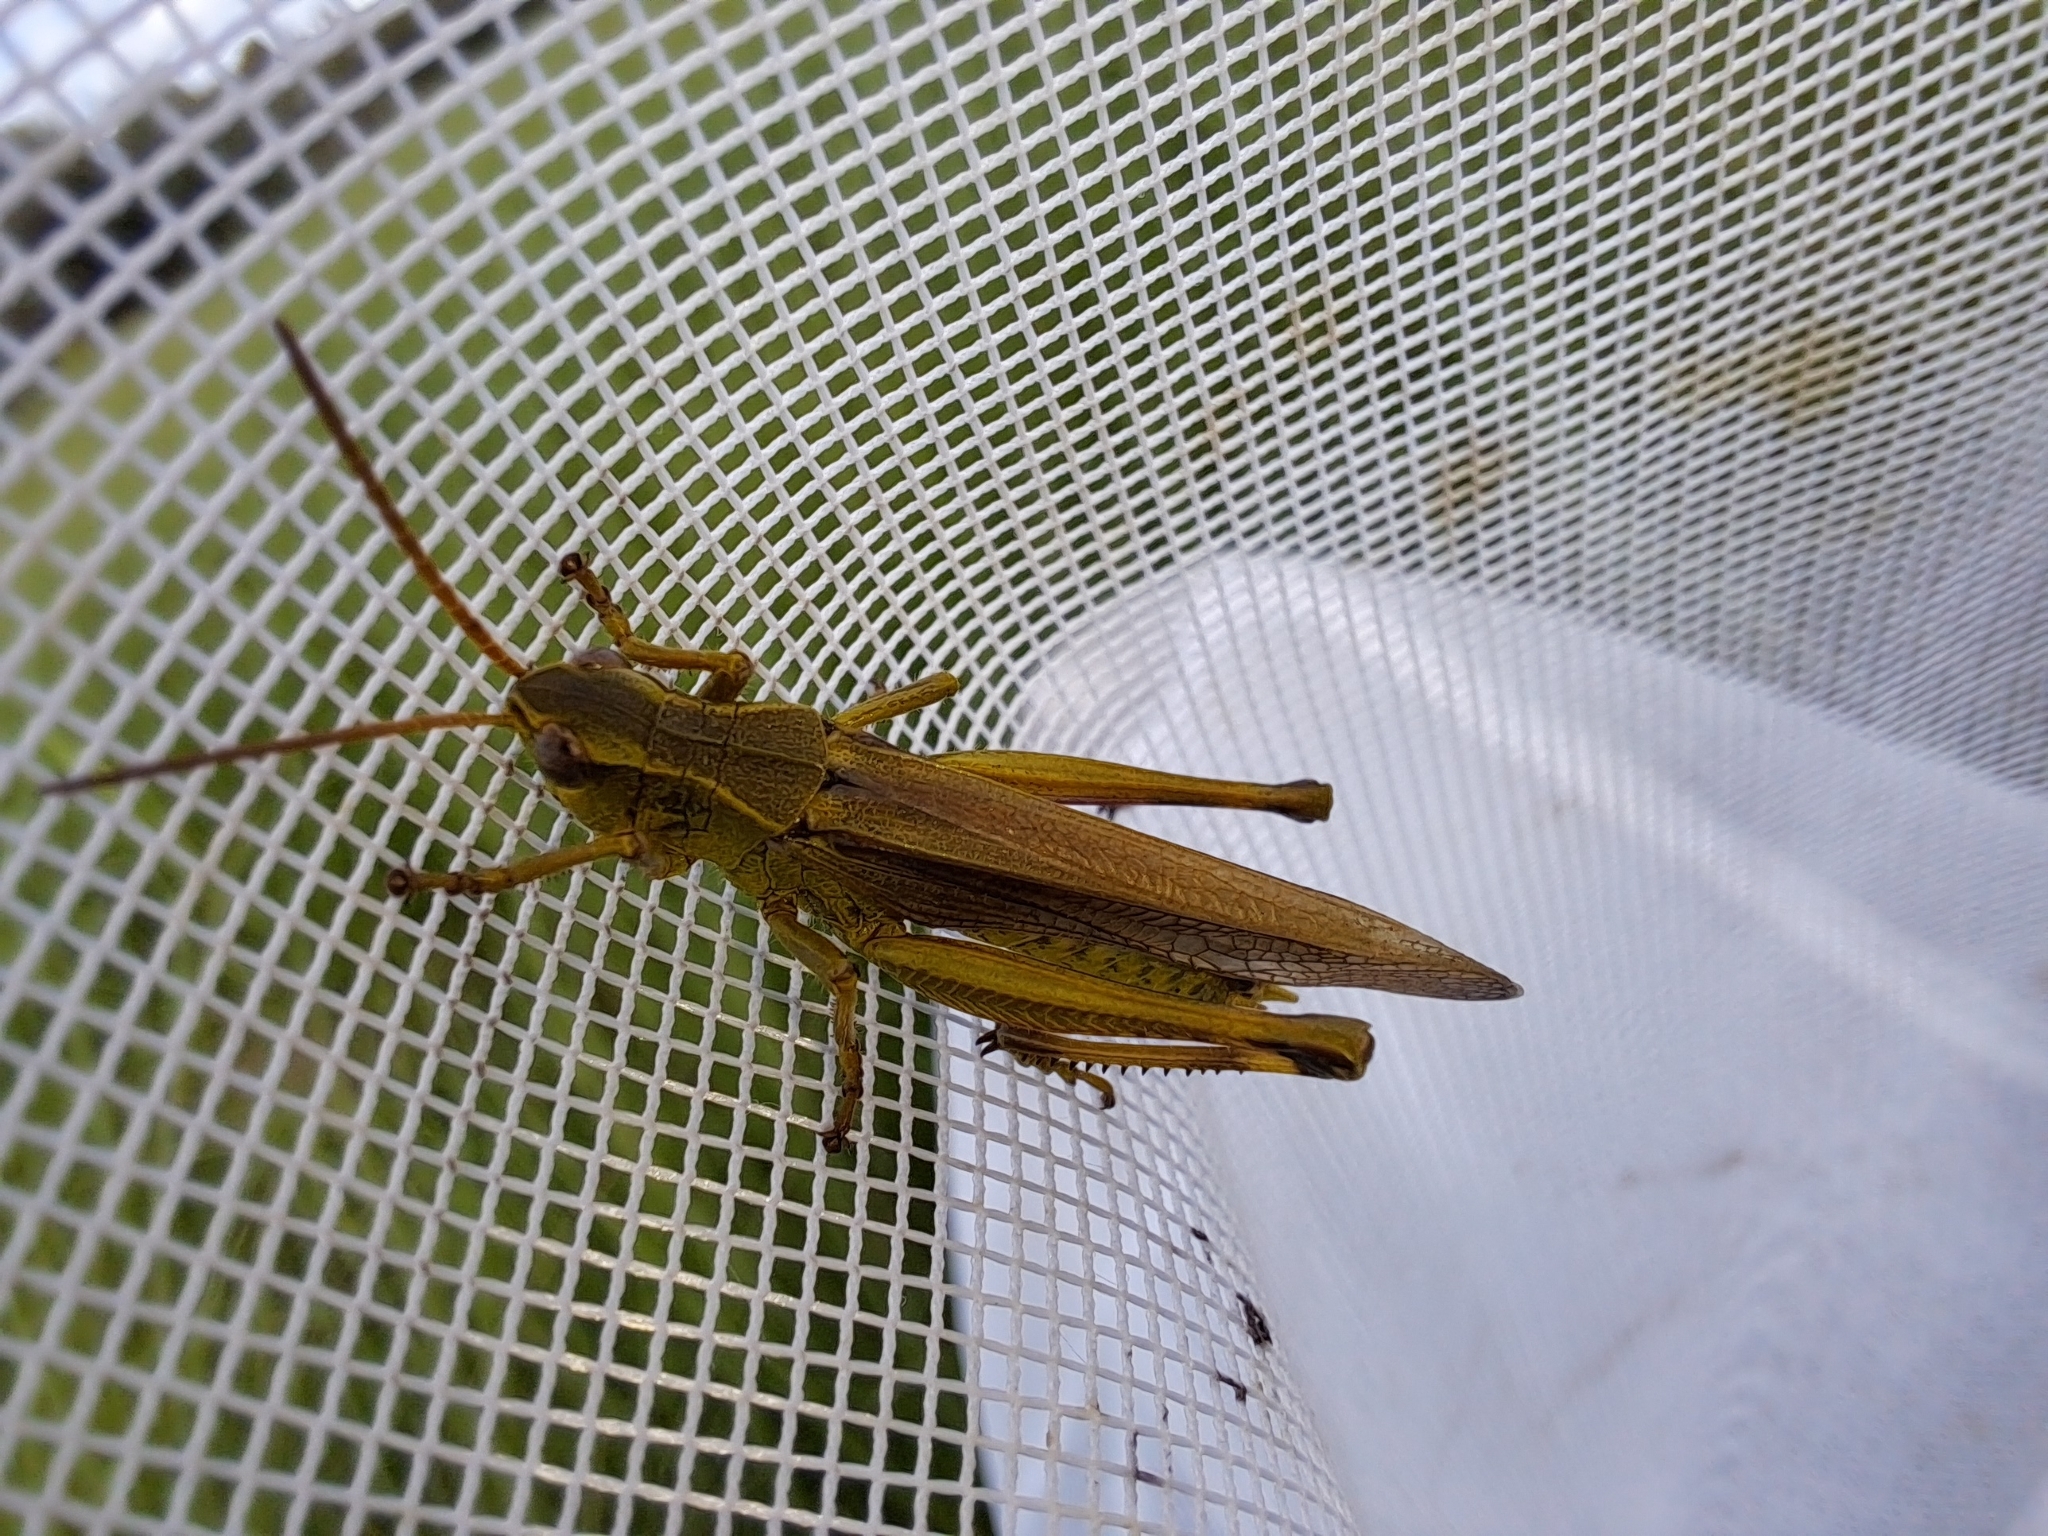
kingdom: Animalia
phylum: Arthropoda
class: Insecta
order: Orthoptera
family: Acrididae
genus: Stethophyma
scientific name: Stethophyma gracile
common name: Graceful sedge grasshopper
